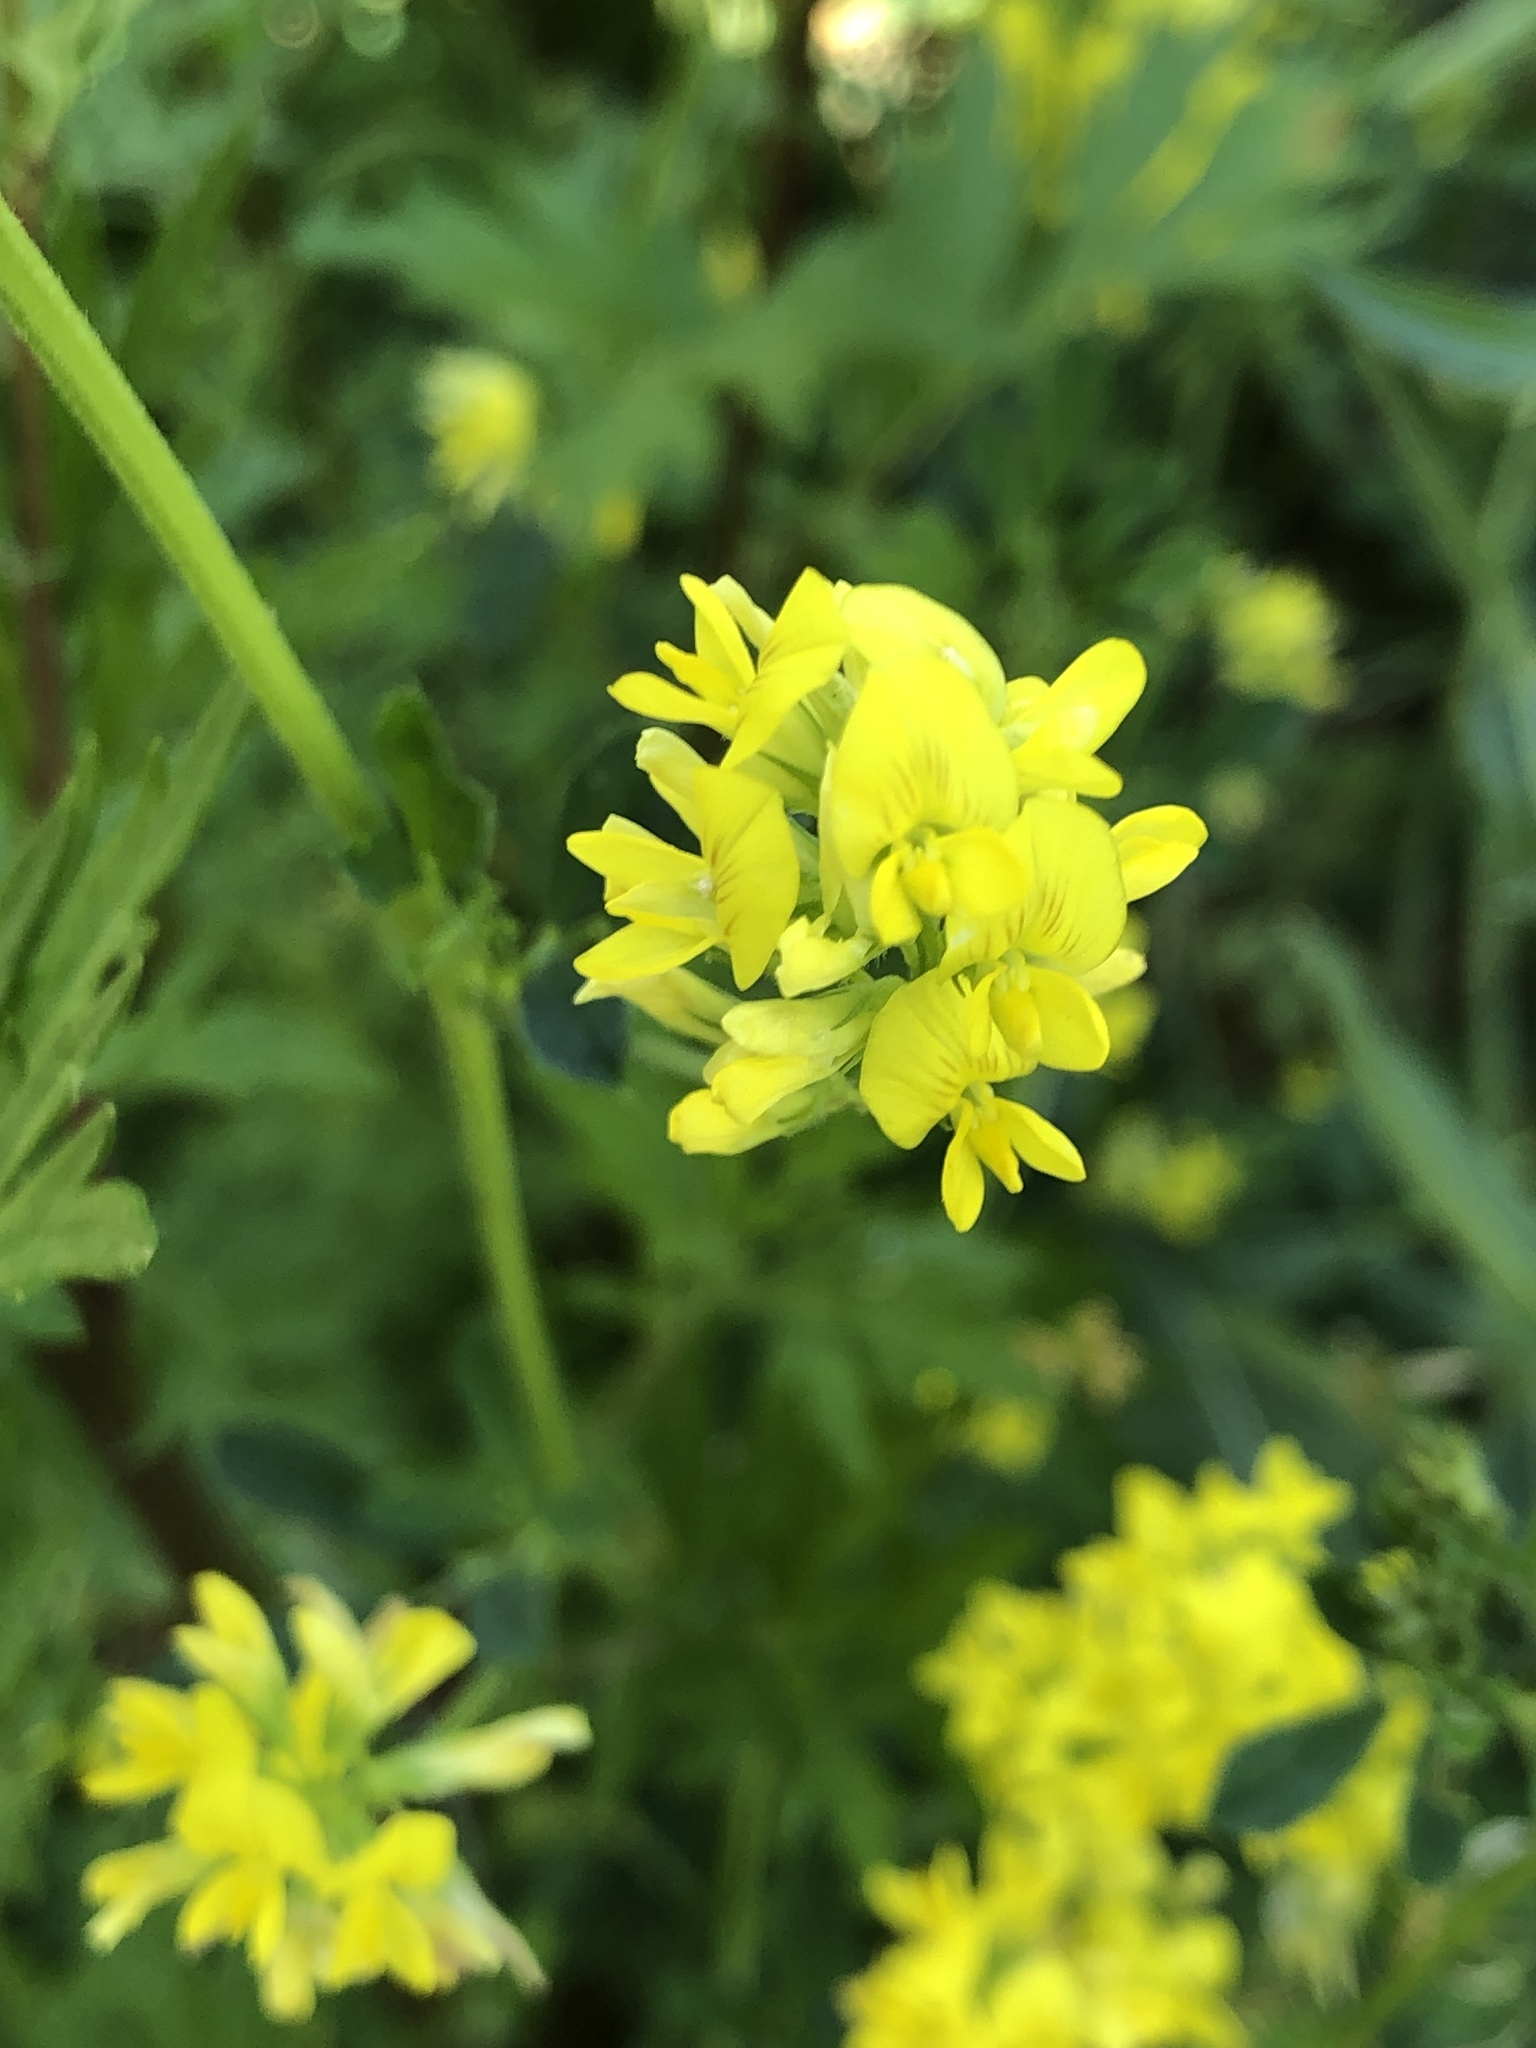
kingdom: Plantae
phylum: Tracheophyta
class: Magnoliopsida
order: Fabales
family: Fabaceae
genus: Medicago
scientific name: Medicago falcata
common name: Sickle medick
